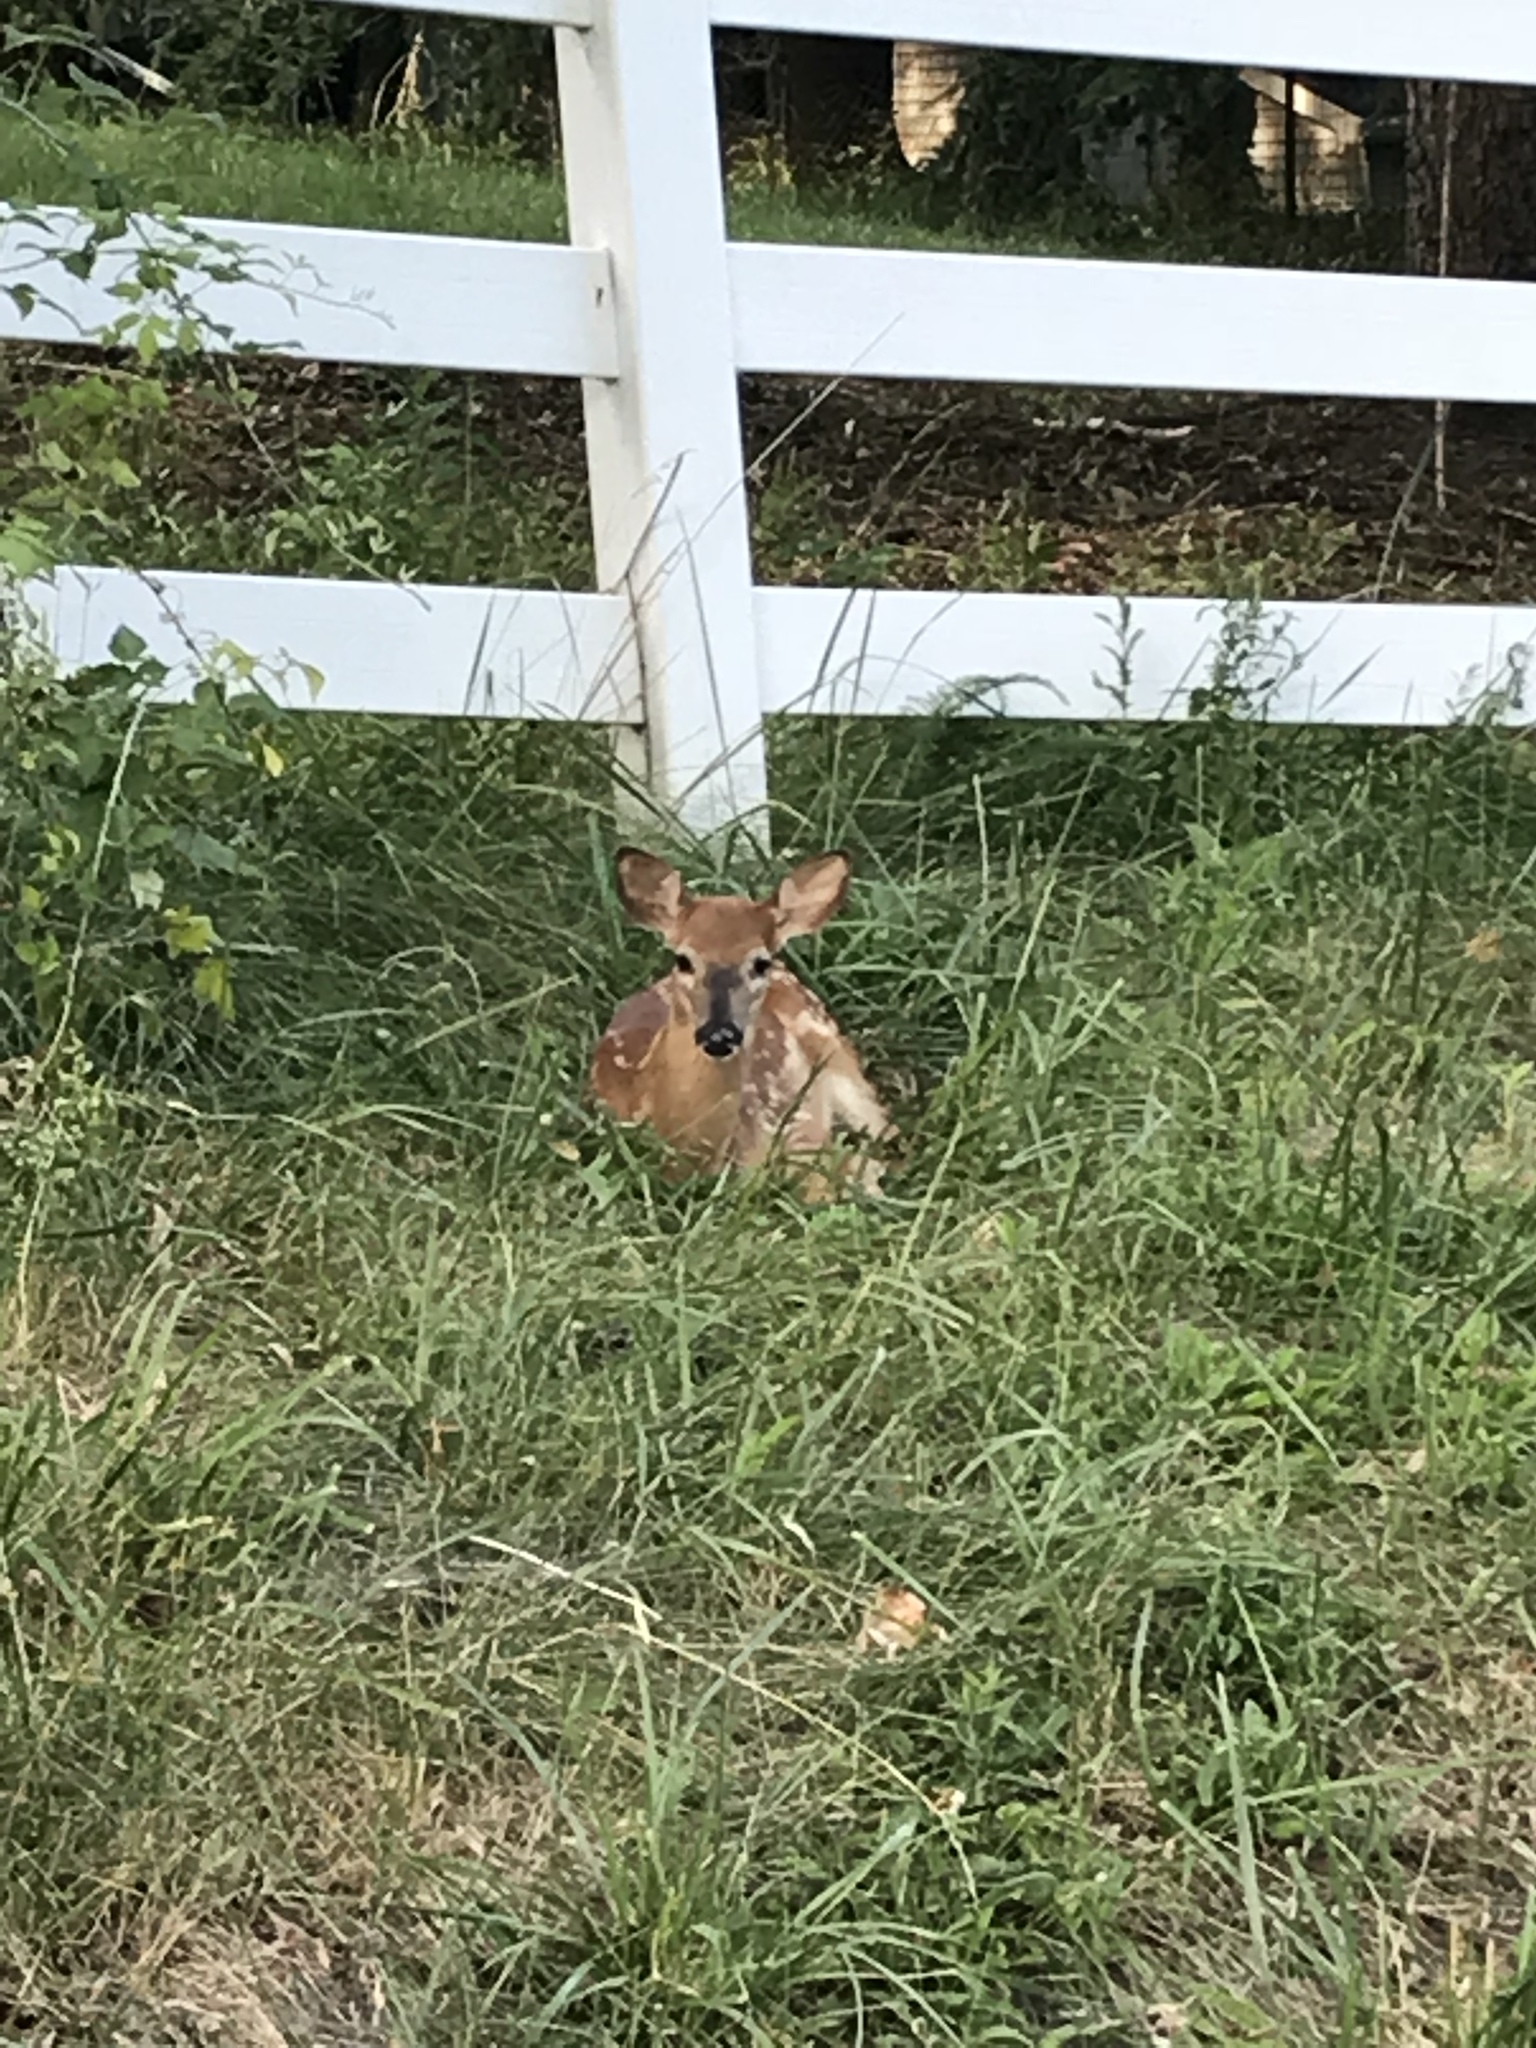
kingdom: Animalia
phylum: Chordata
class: Mammalia
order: Artiodactyla
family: Cervidae
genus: Odocoileus
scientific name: Odocoileus virginianus
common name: White-tailed deer
